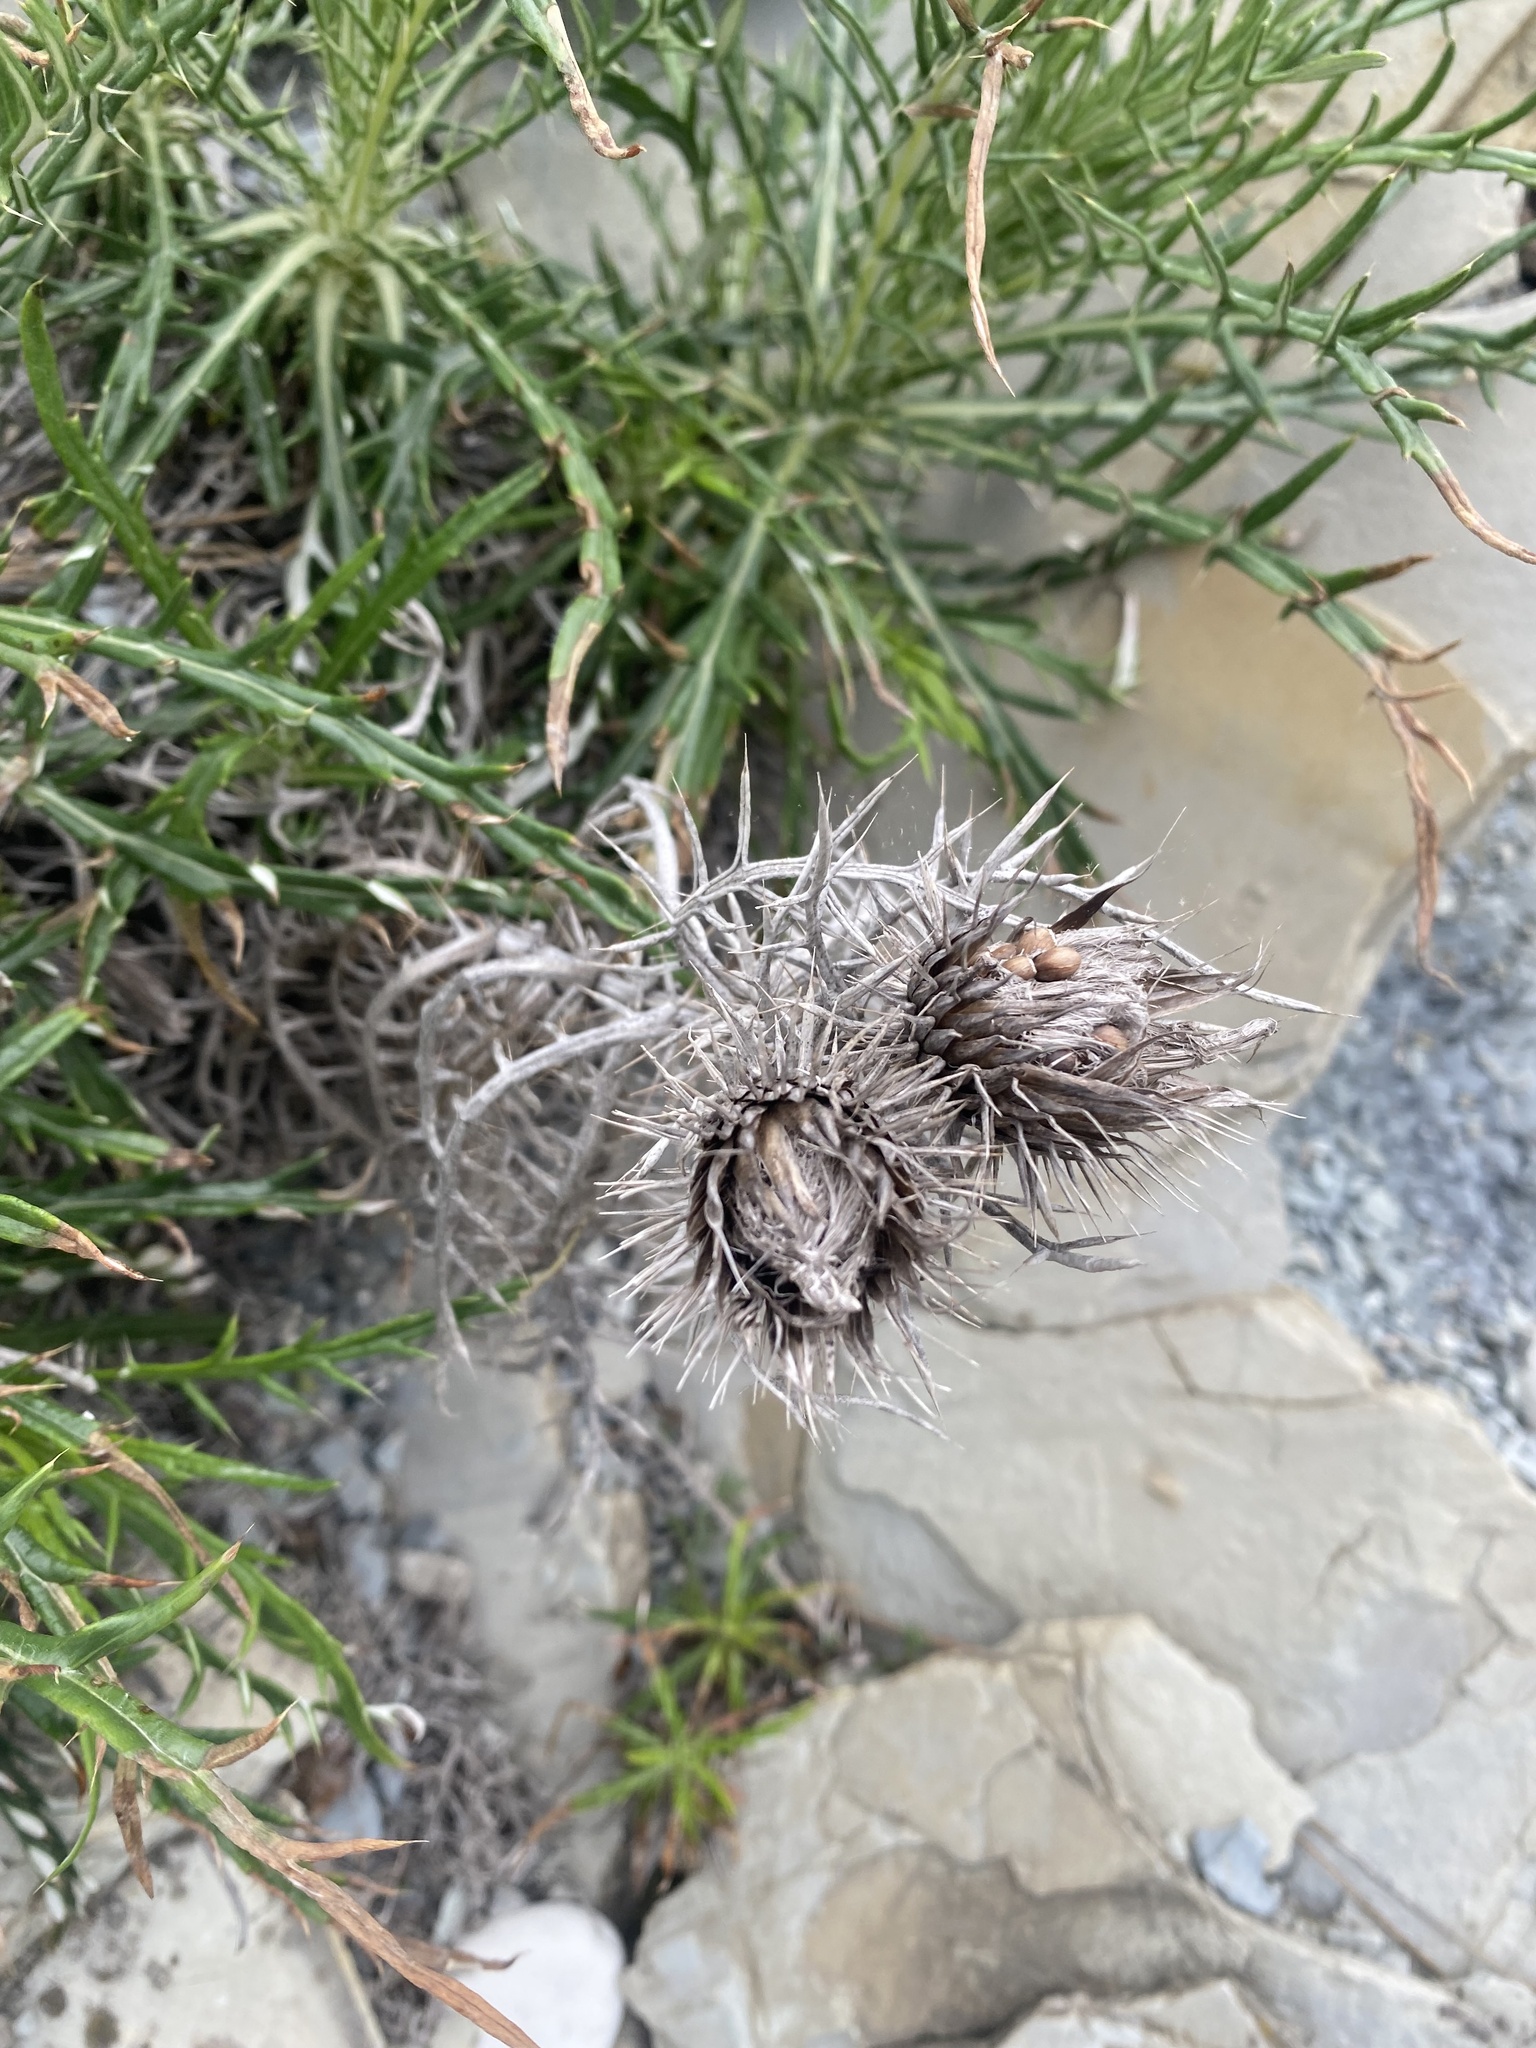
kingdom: Plantae
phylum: Tracheophyta
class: Magnoliopsida
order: Asterales
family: Asteraceae
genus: Ptilostemon
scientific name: Ptilostemon echinocephalus
